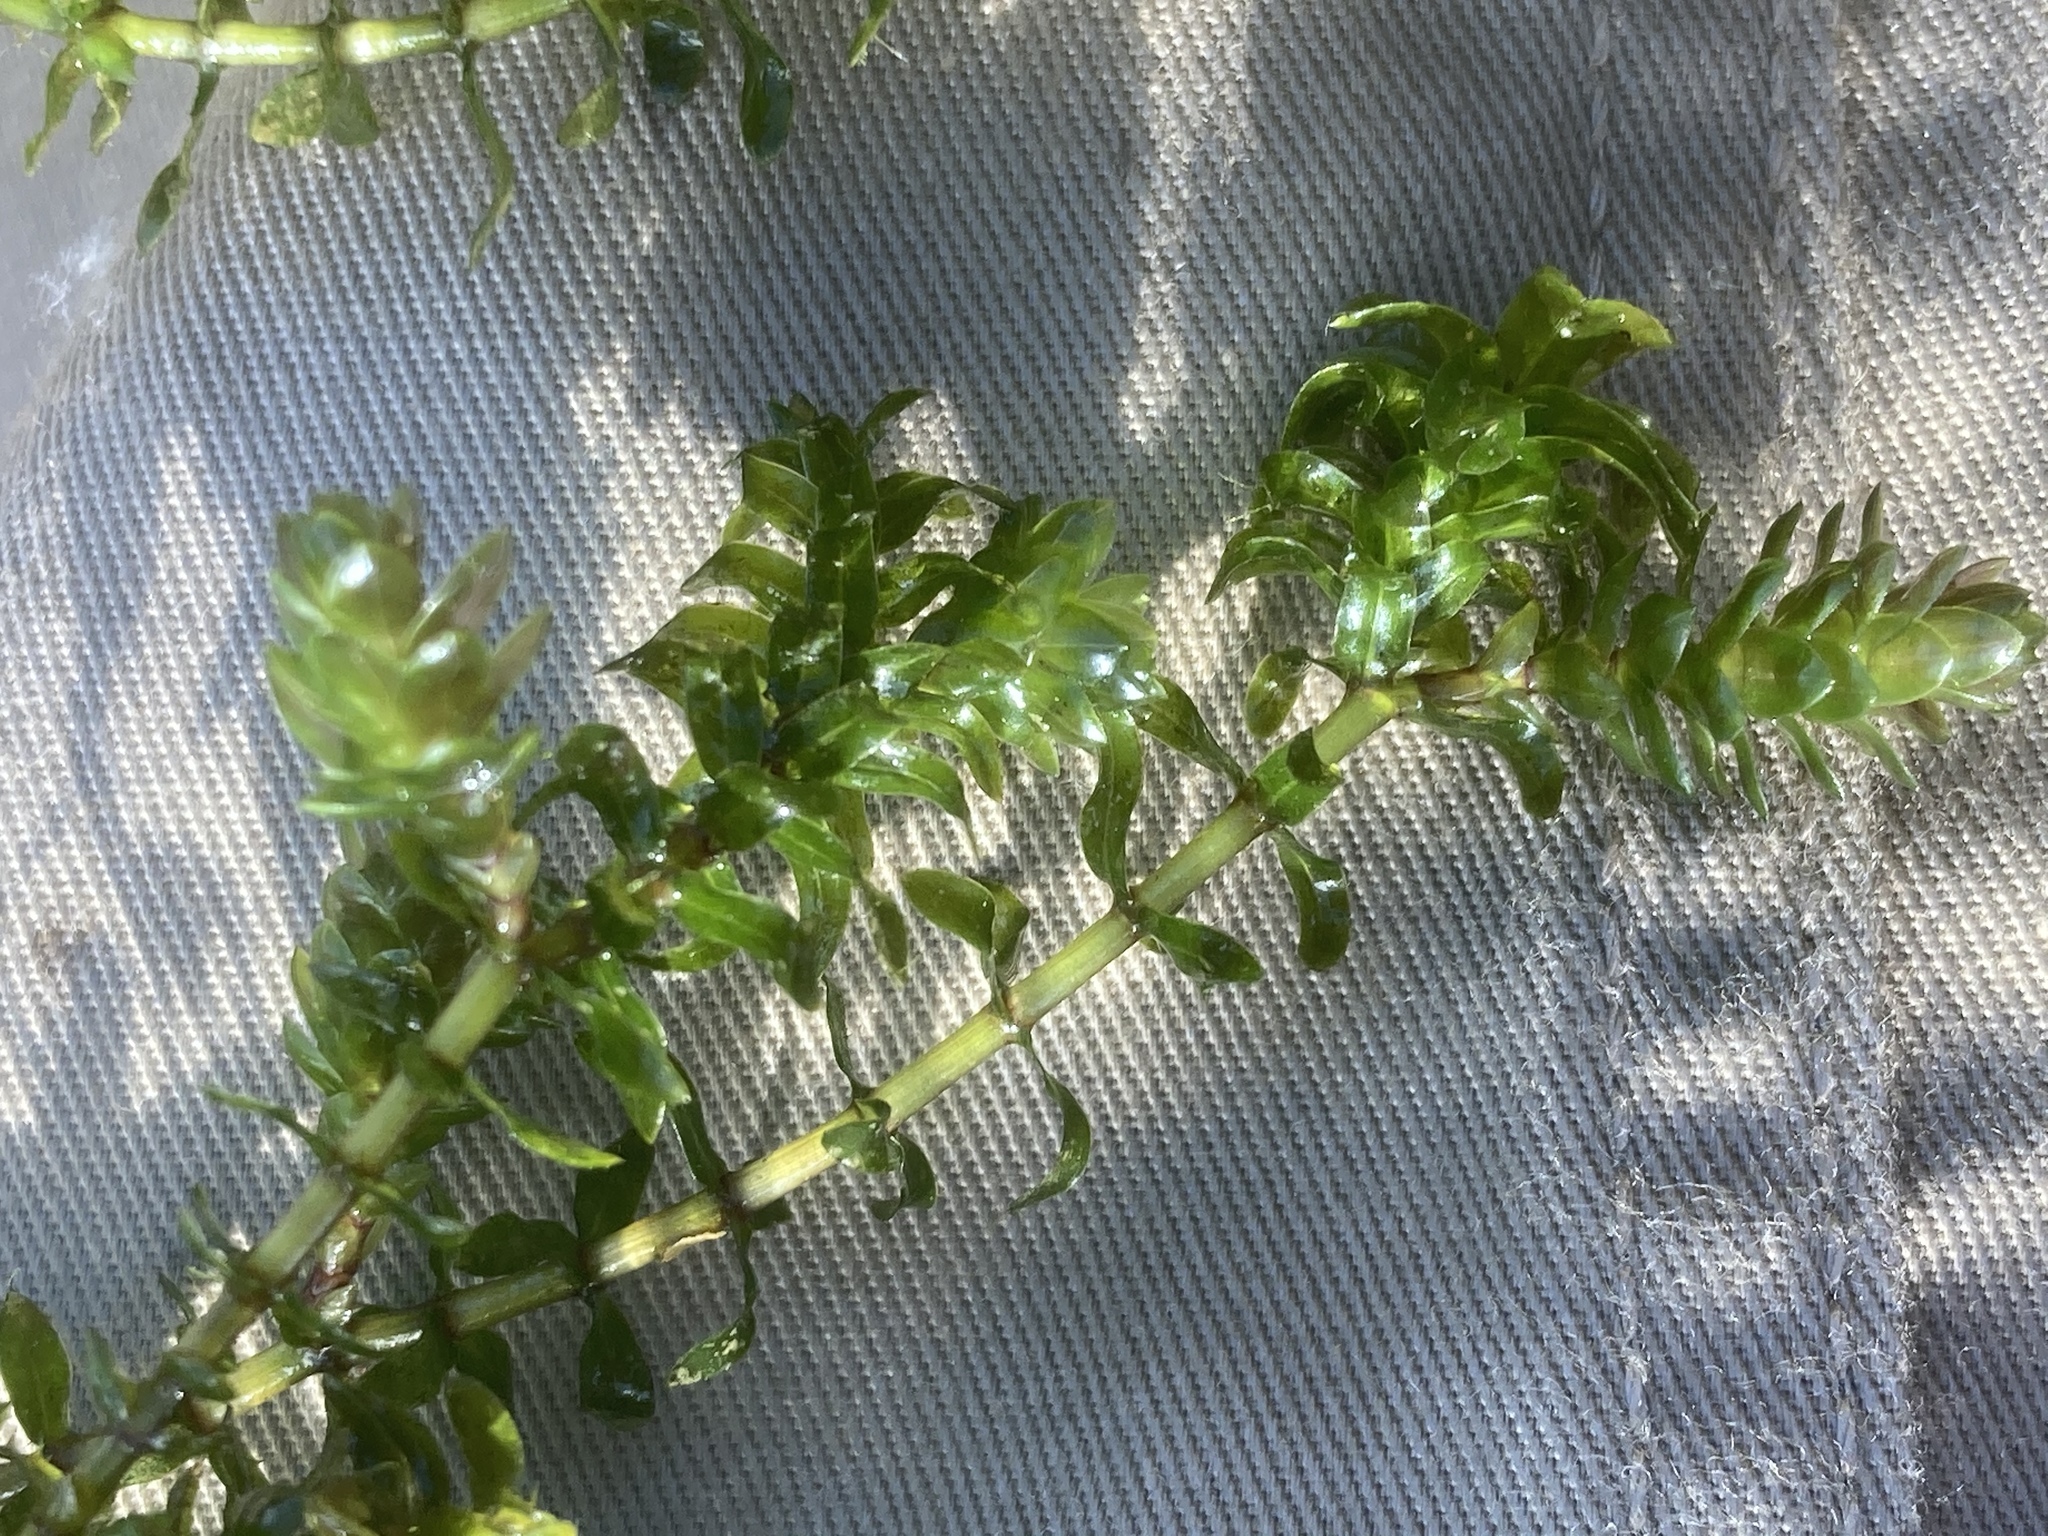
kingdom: Plantae
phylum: Tracheophyta
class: Liliopsida
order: Alismatales
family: Hydrocharitaceae
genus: Elodea
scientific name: Elodea canadensis
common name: Canadian waterweed
